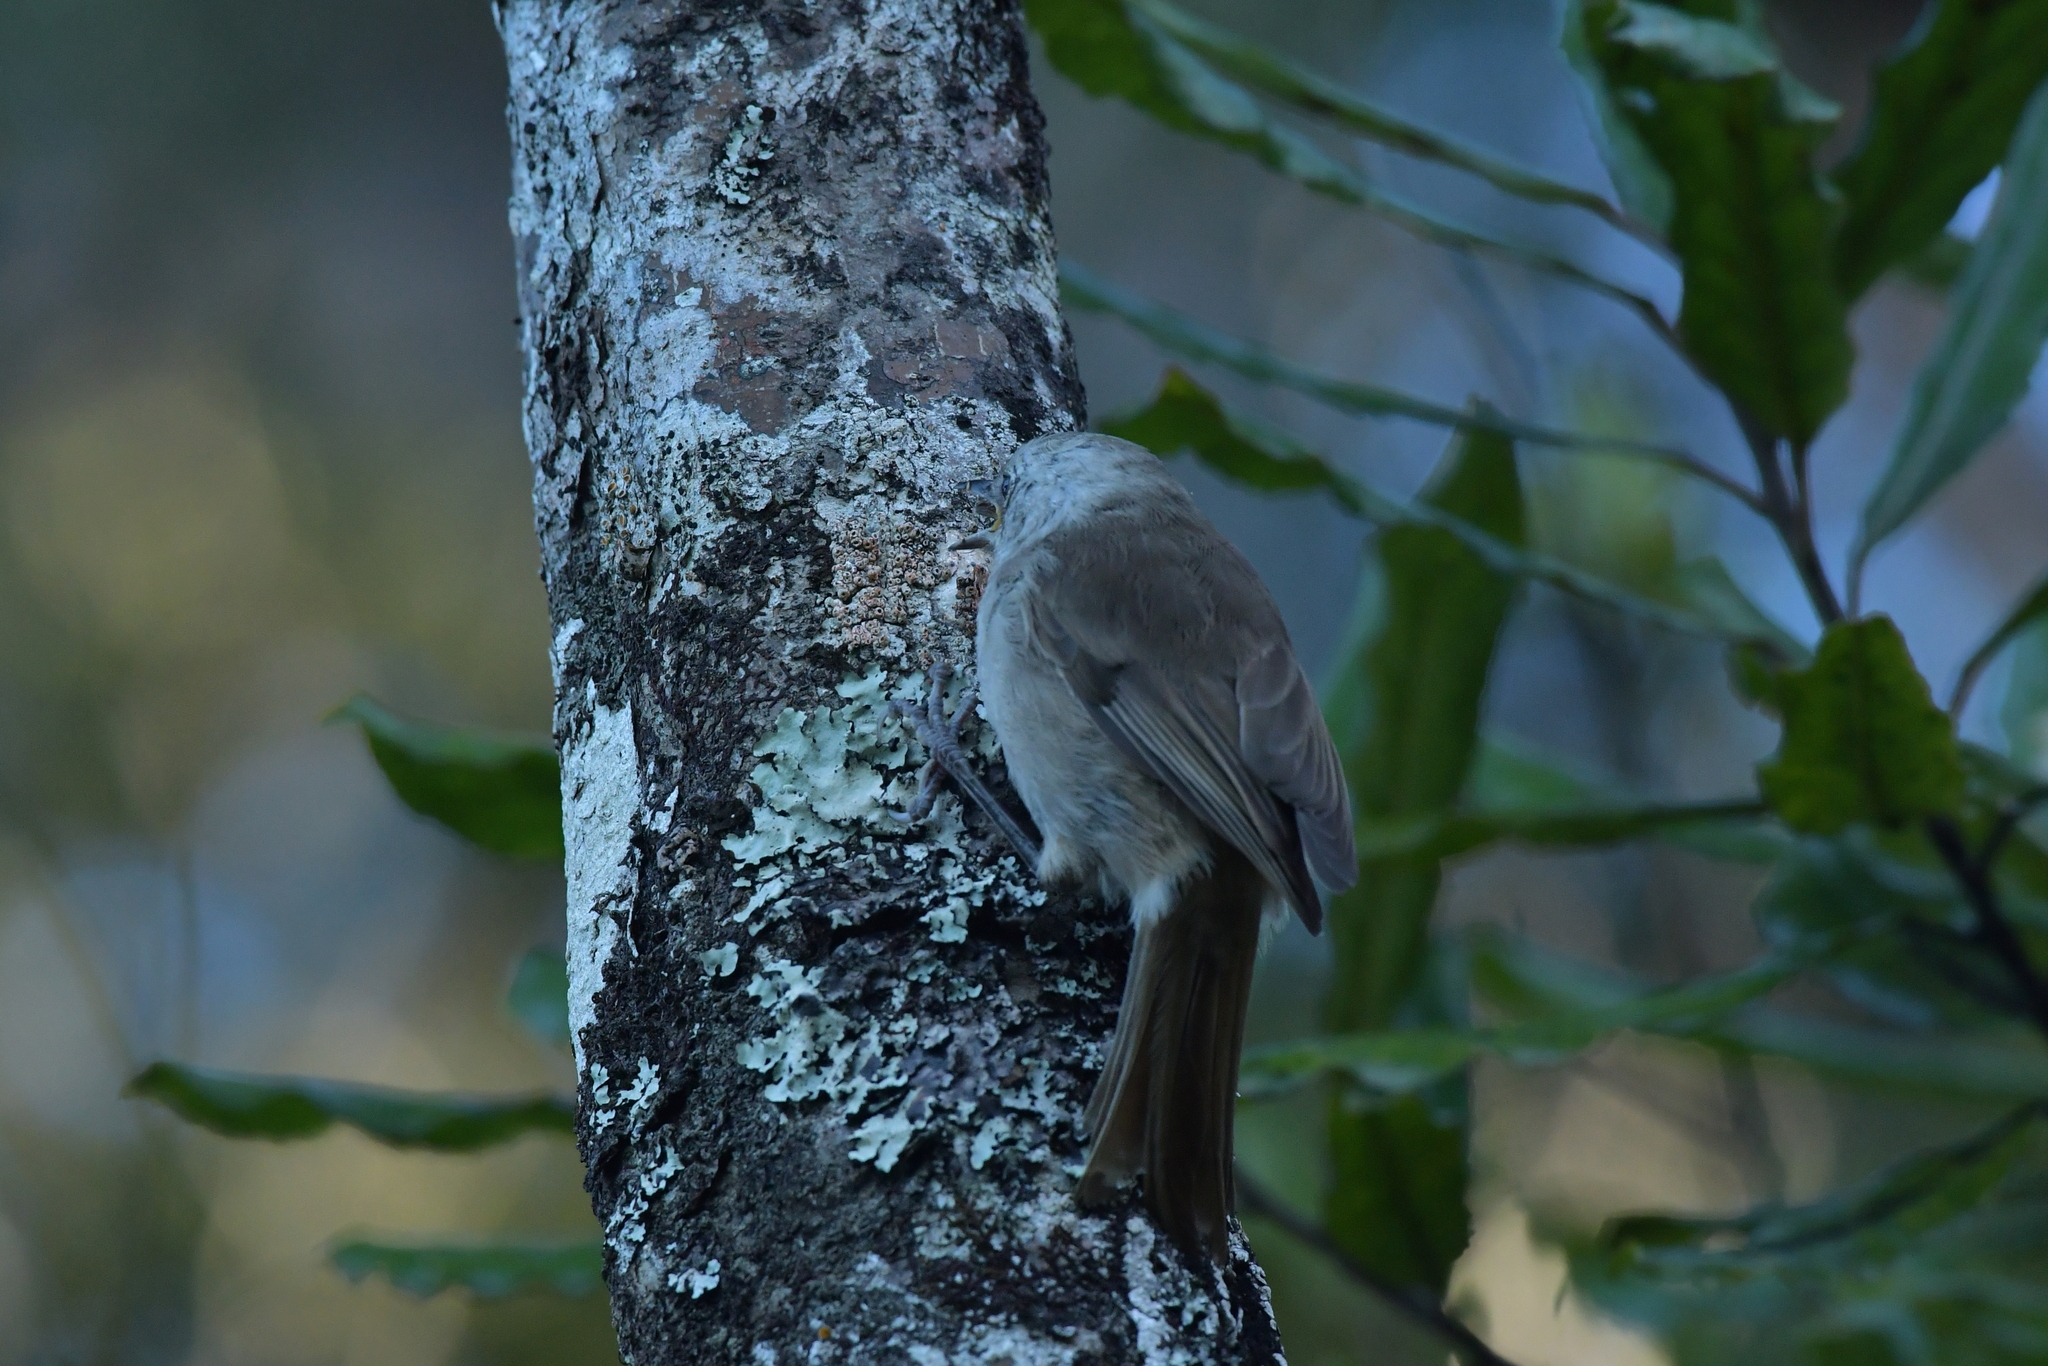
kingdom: Animalia
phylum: Chordata
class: Aves
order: Passeriformes
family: Acanthizidae
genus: Mohoua
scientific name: Mohoua albicilla
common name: Whitehead
